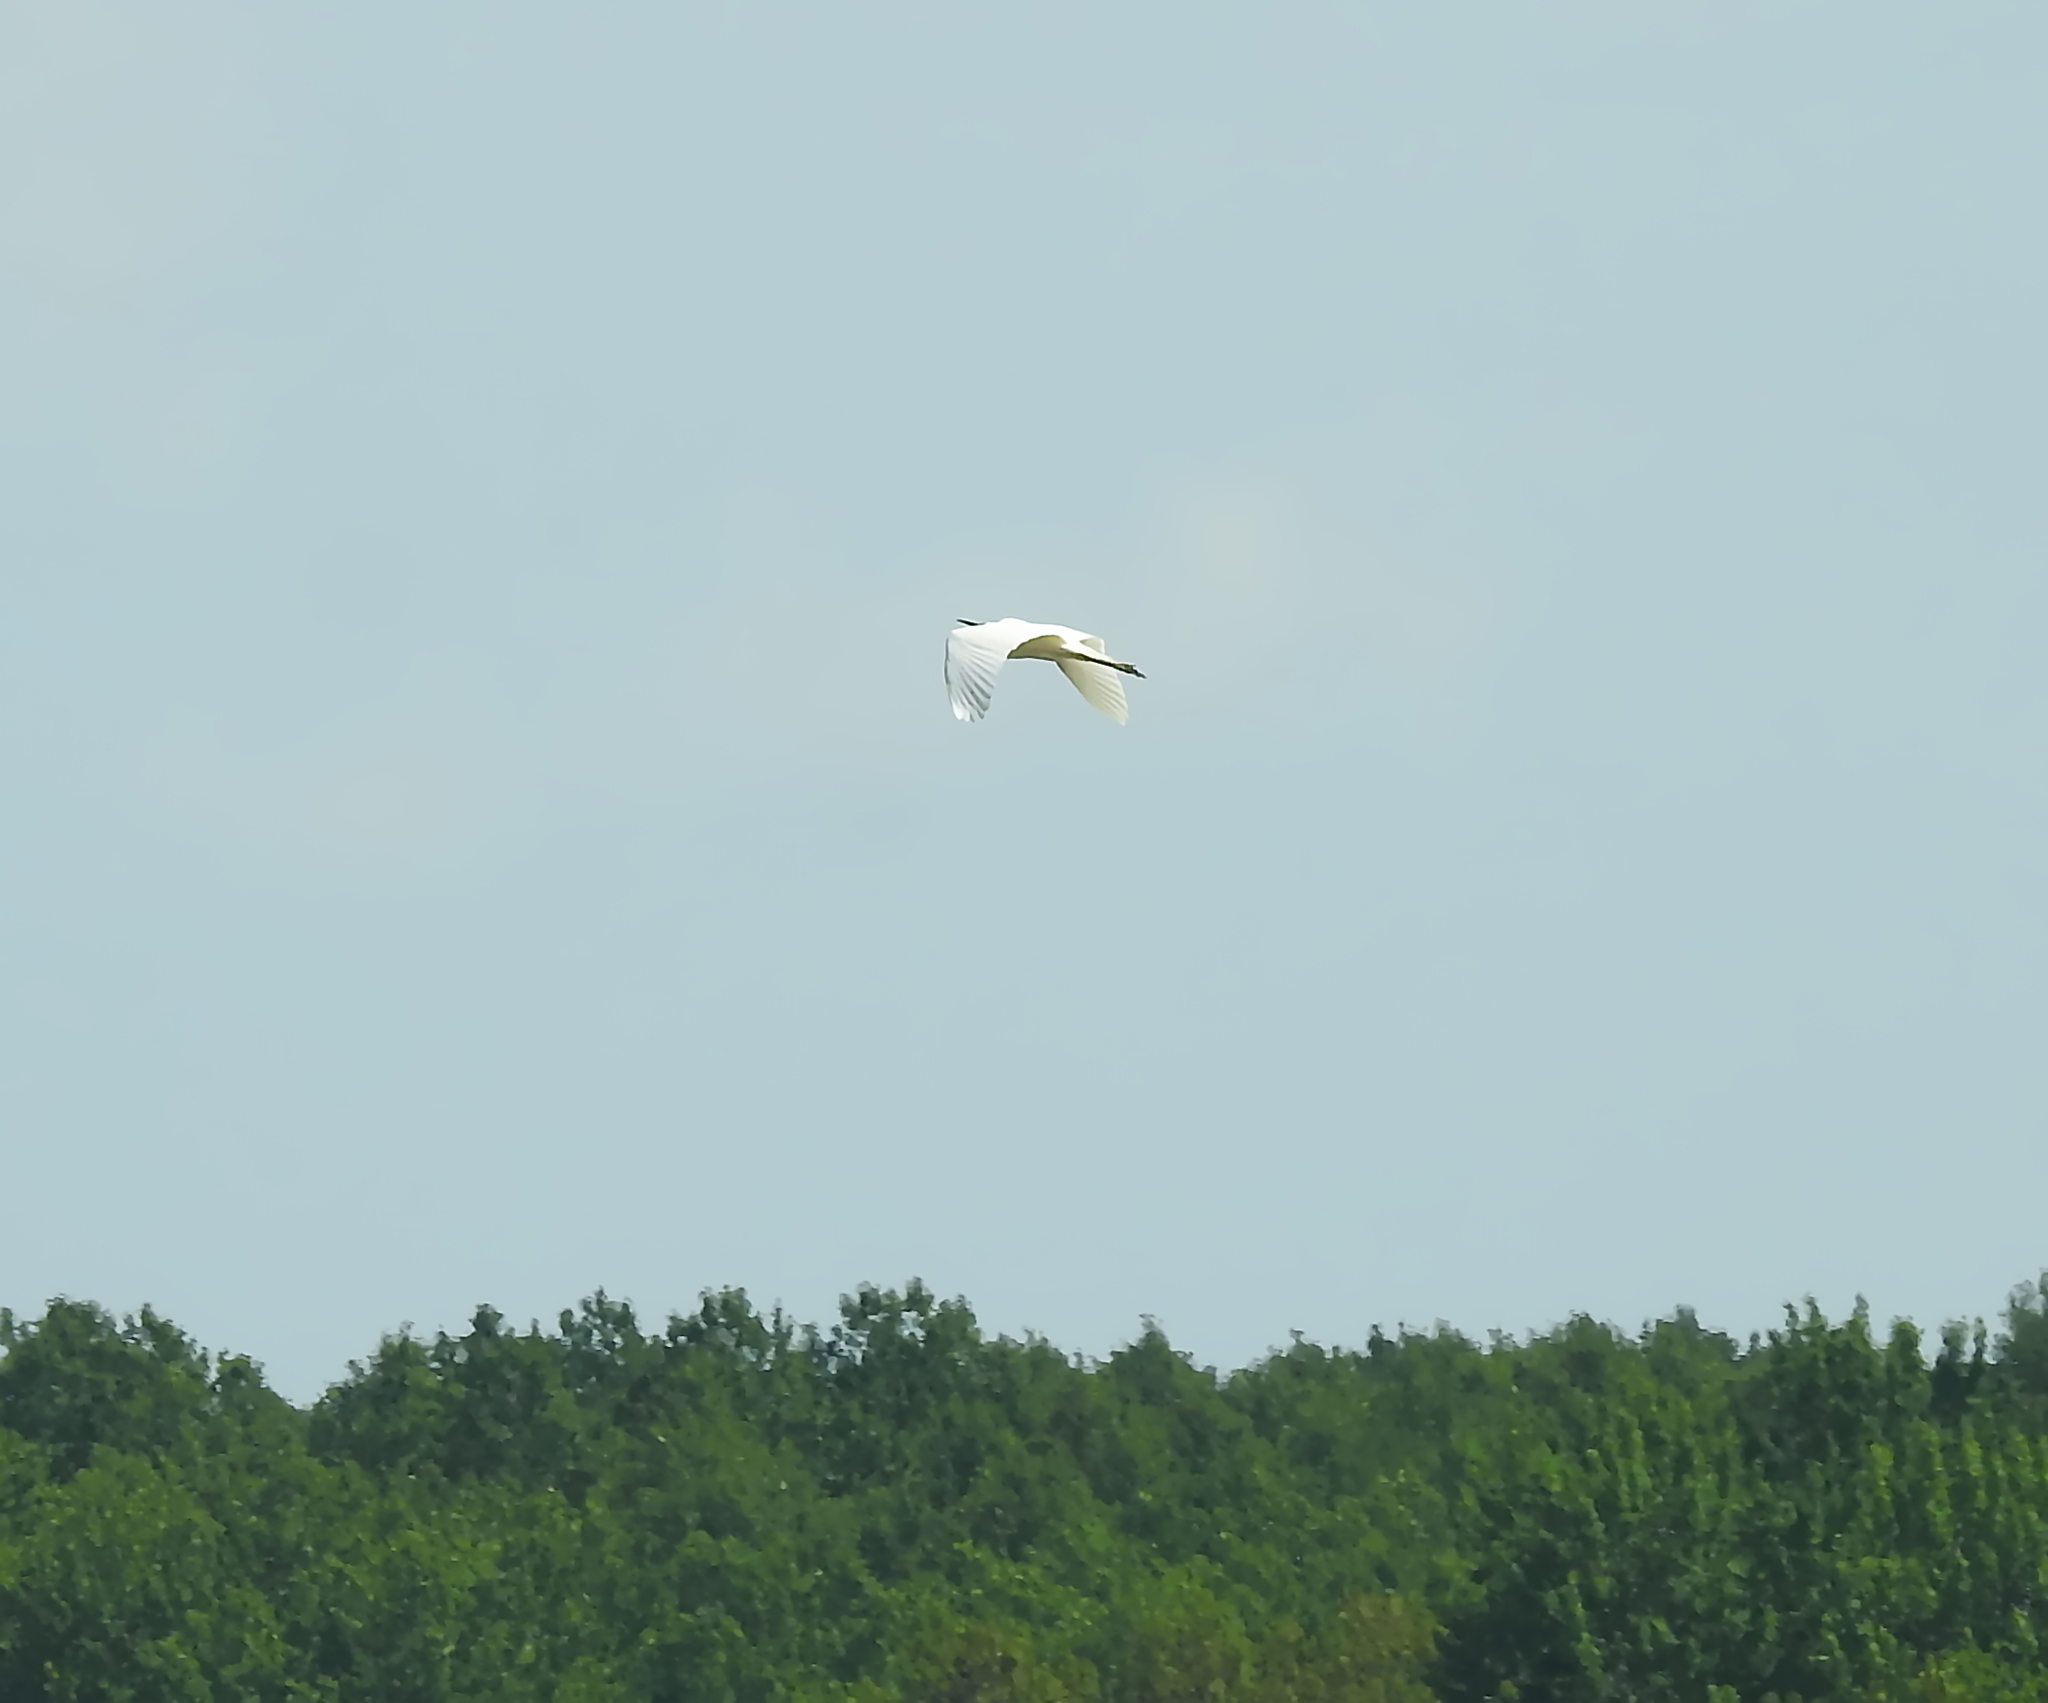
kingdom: Animalia
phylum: Chordata
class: Aves
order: Pelecaniformes
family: Ardeidae
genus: Ardea
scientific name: Ardea alba
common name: Great egret
